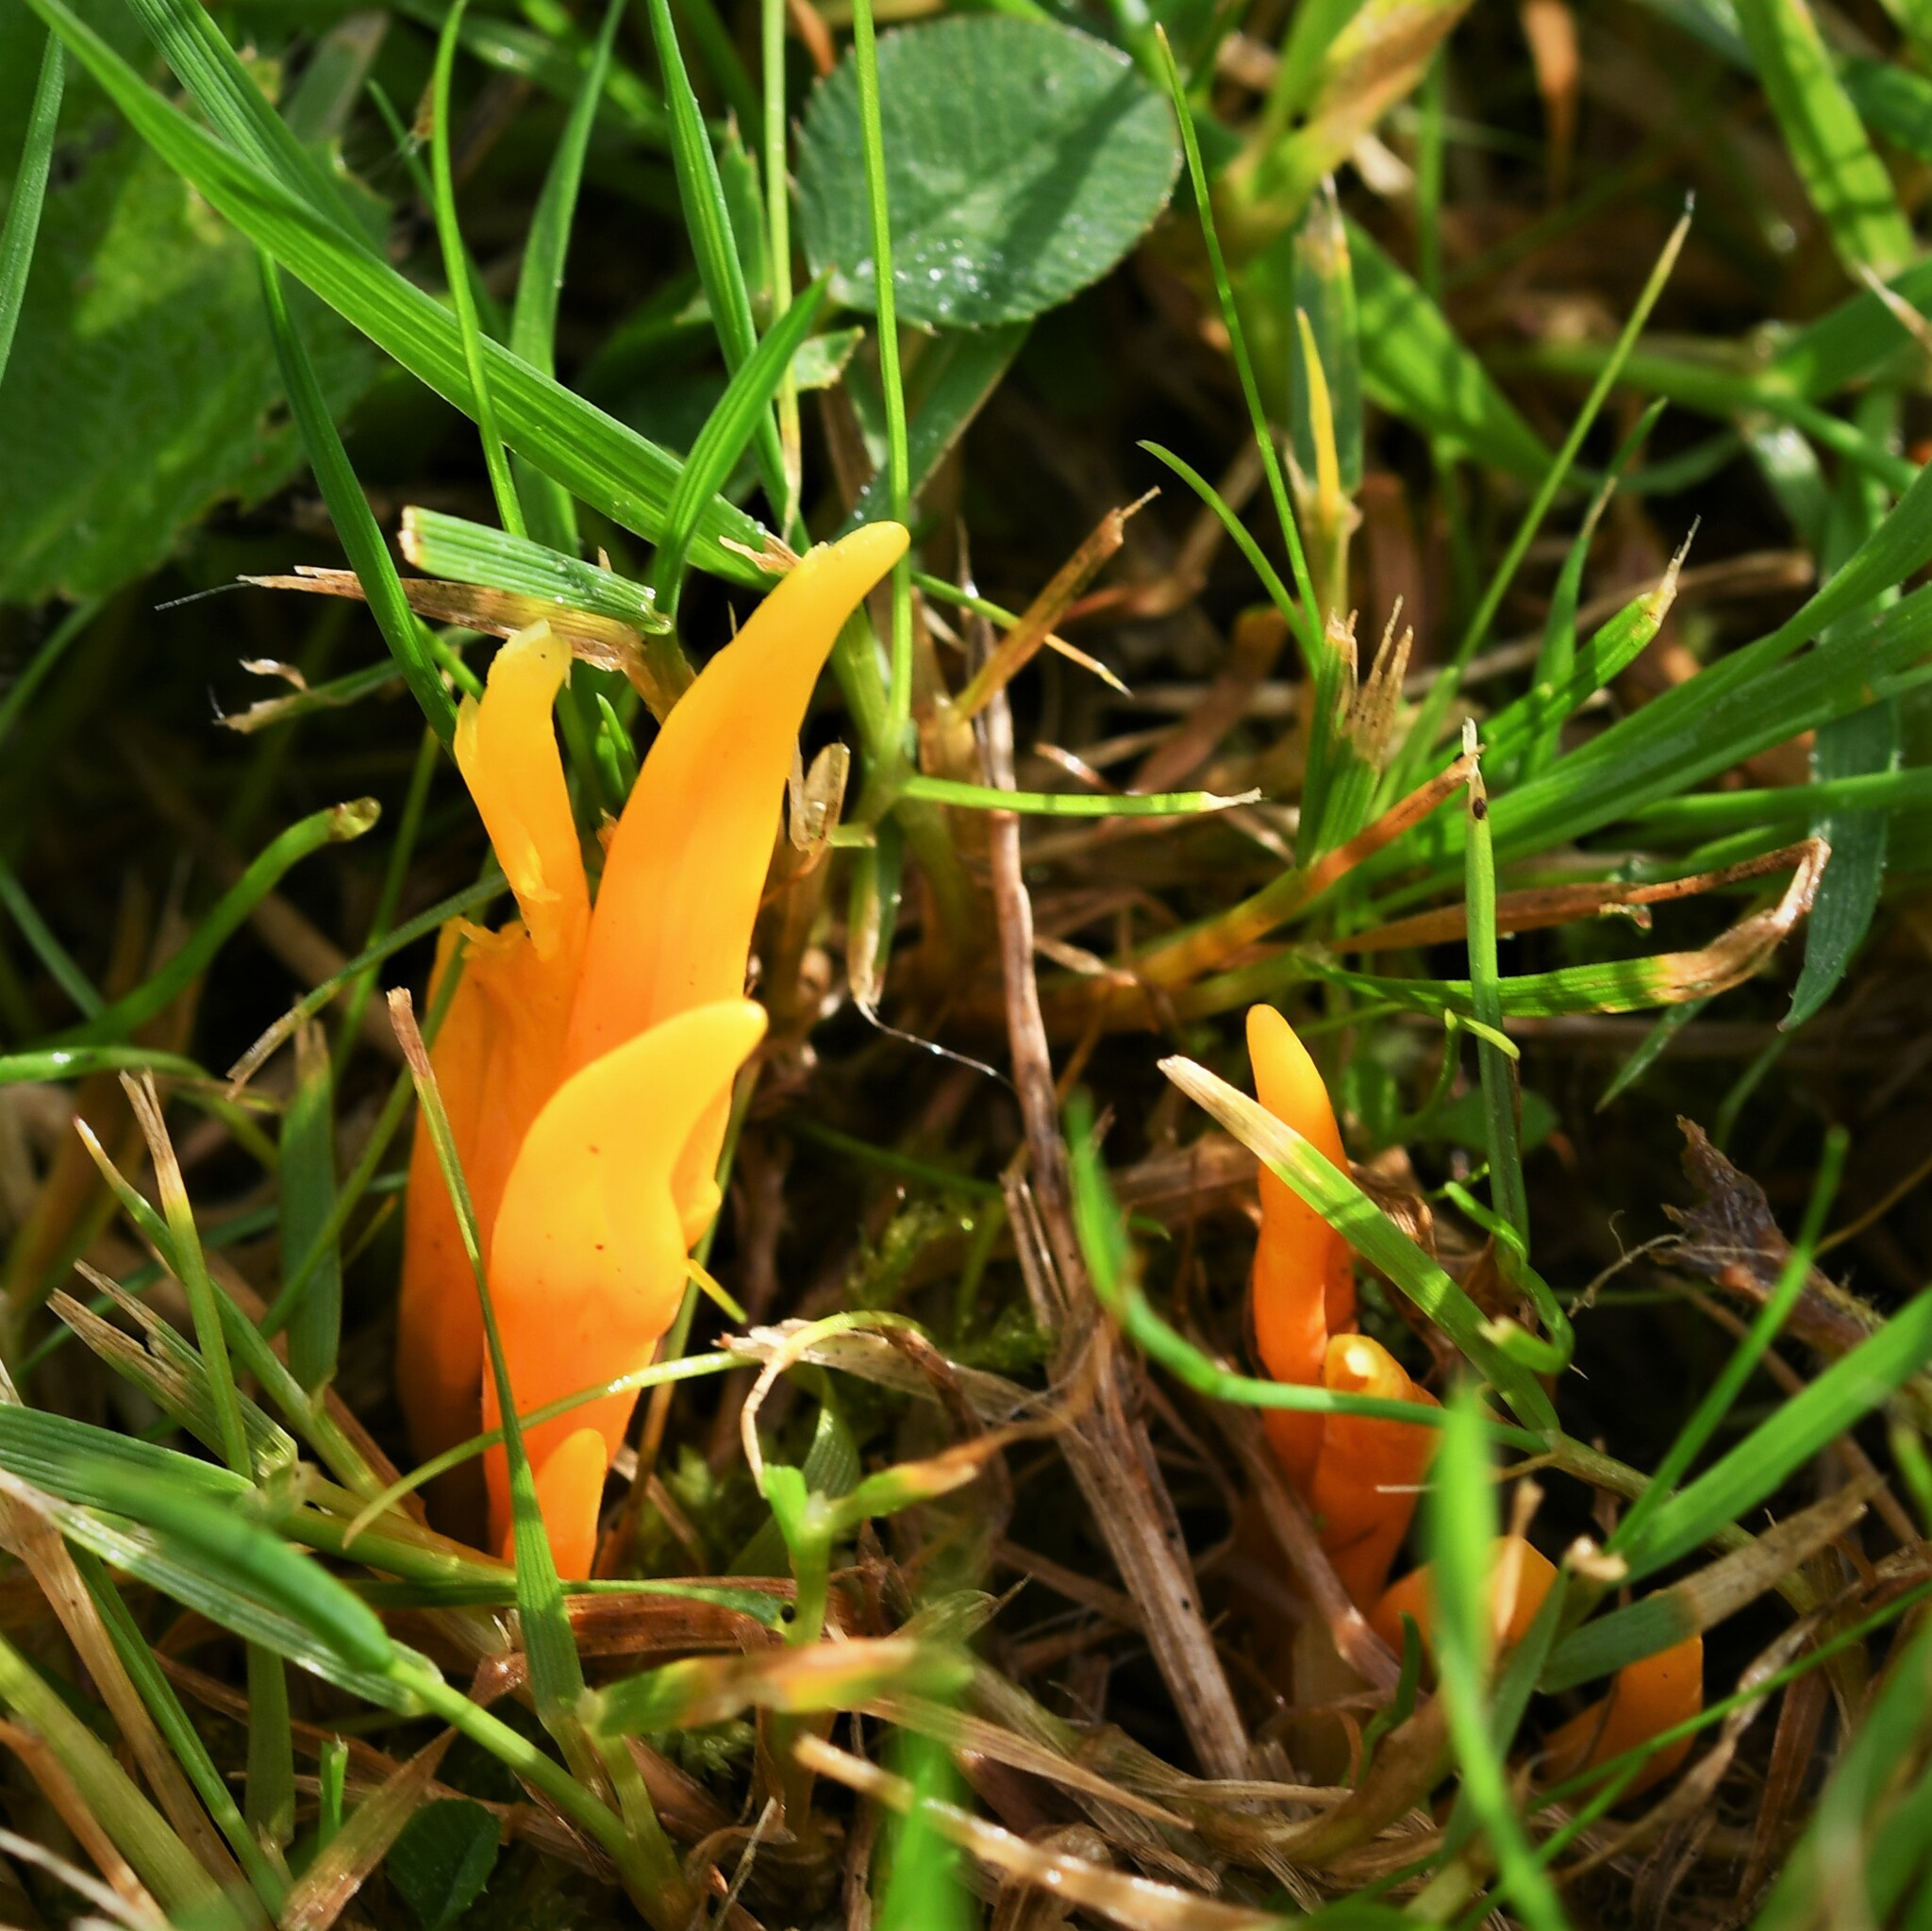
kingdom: Fungi
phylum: Basidiomycota
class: Agaricomycetes
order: Agaricales
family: Clavariaceae
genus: Clavulinopsis
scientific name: Clavulinopsis laeticolor
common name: Handsome club
